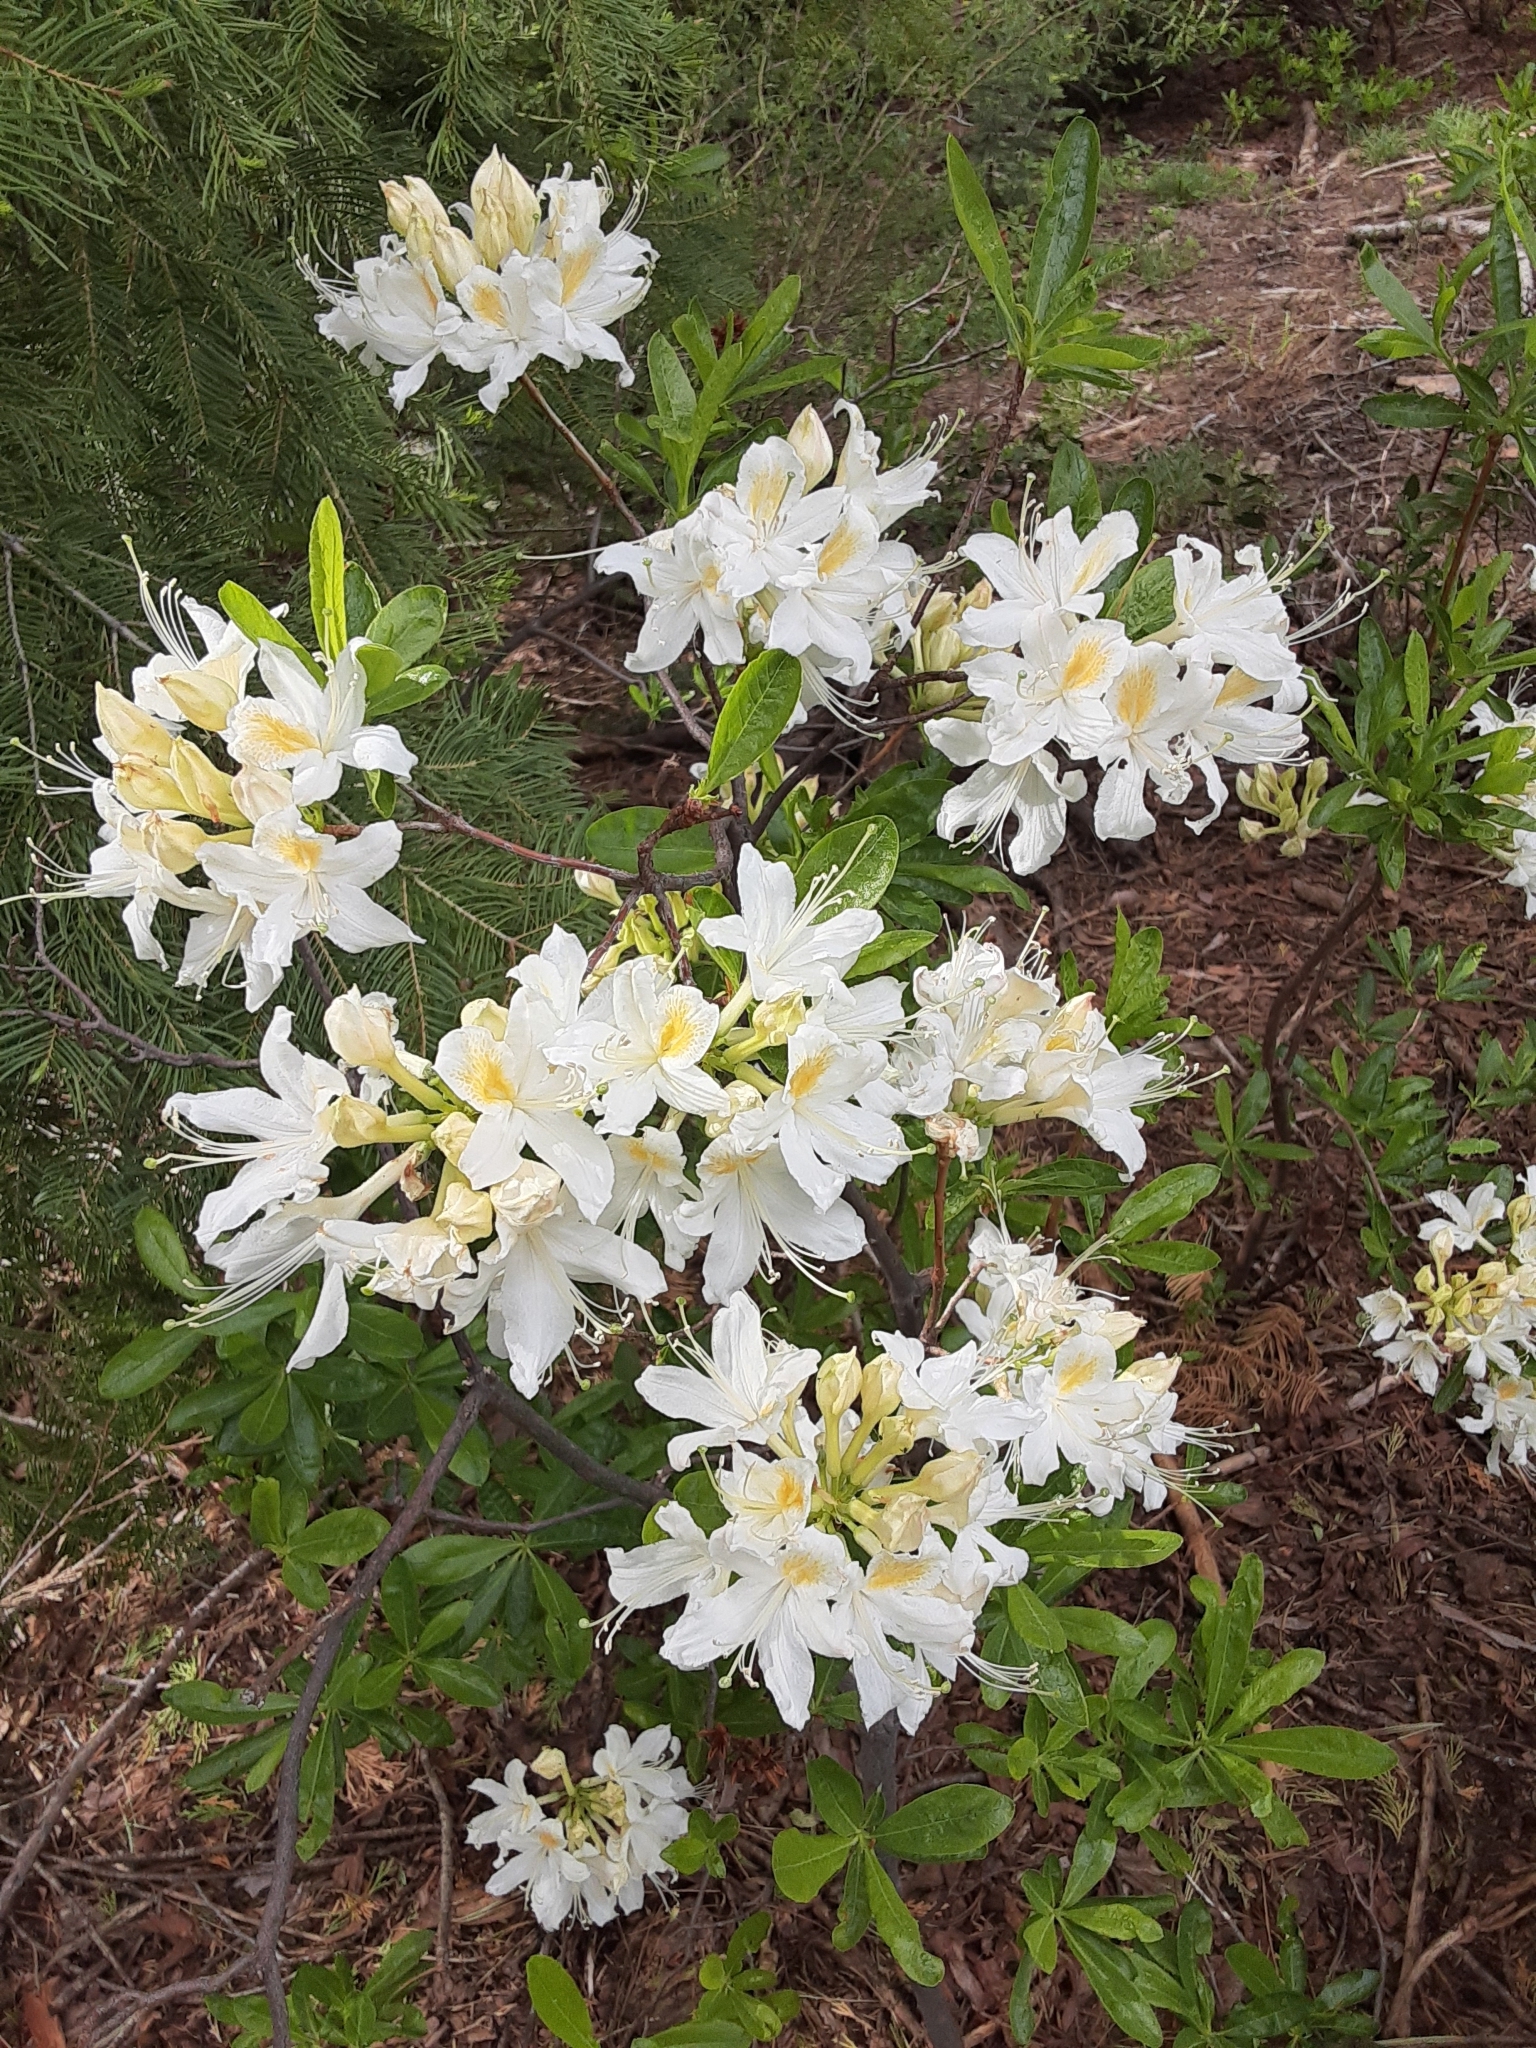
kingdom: Plantae
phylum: Tracheophyta
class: Magnoliopsida
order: Ericales
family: Ericaceae
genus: Rhododendron
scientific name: Rhododendron occidentale
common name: Western azalea
